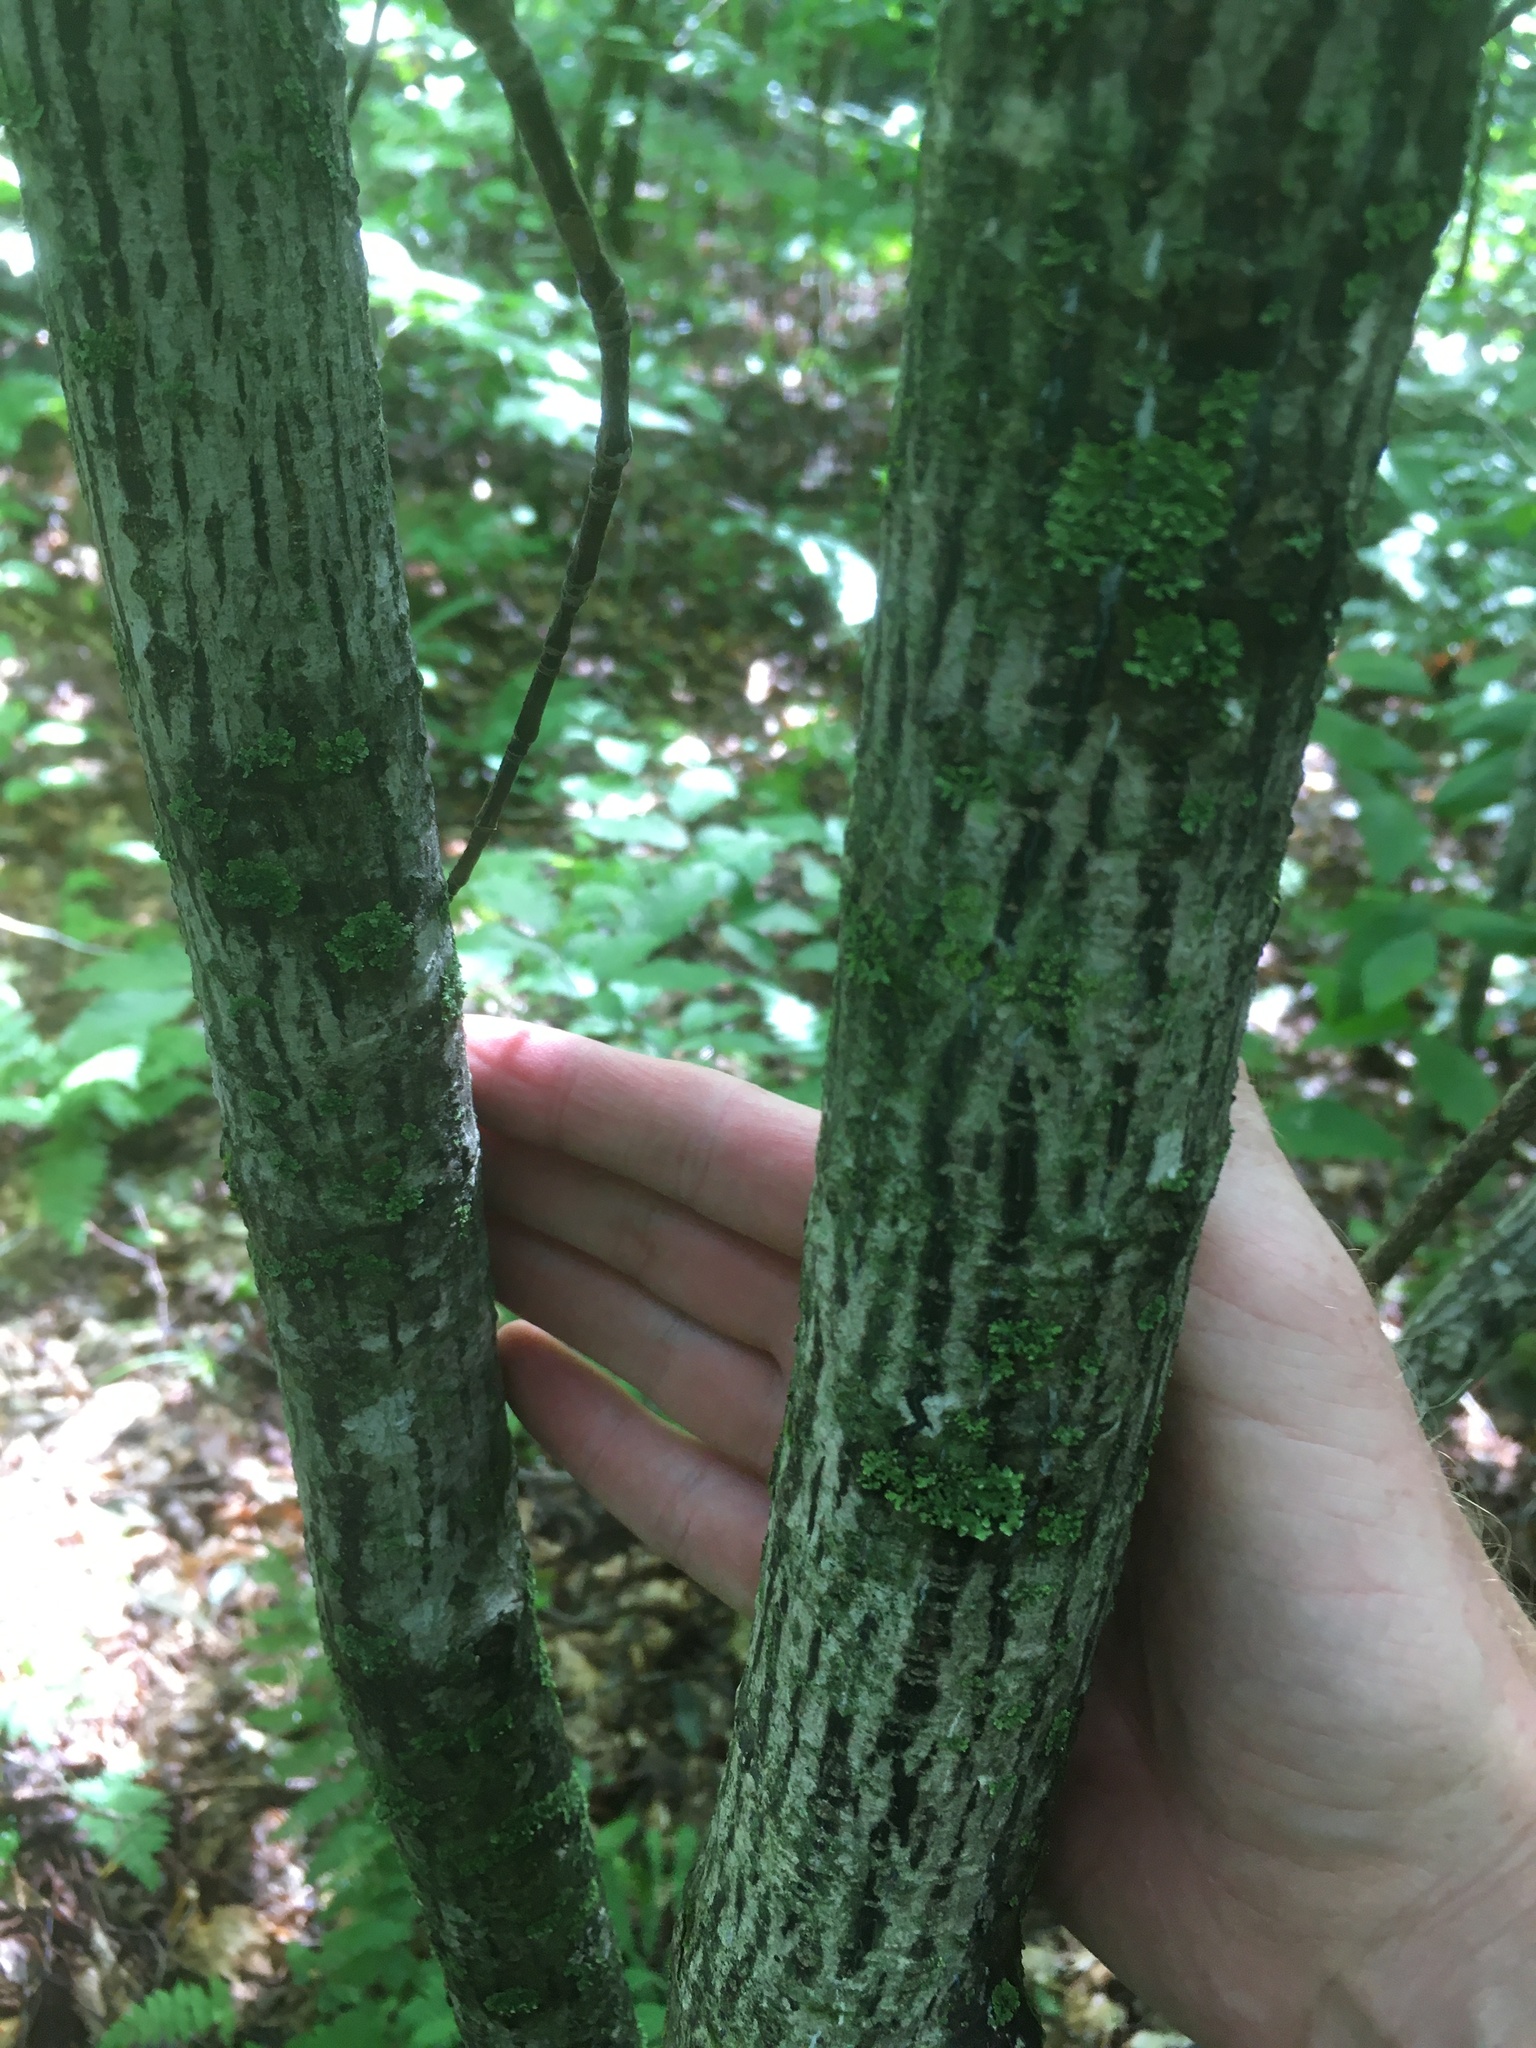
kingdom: Plantae
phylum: Tracheophyta
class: Magnoliopsida
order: Sapindales
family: Sapindaceae
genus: Acer
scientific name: Acer pensylvanicum
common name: Moosewood
